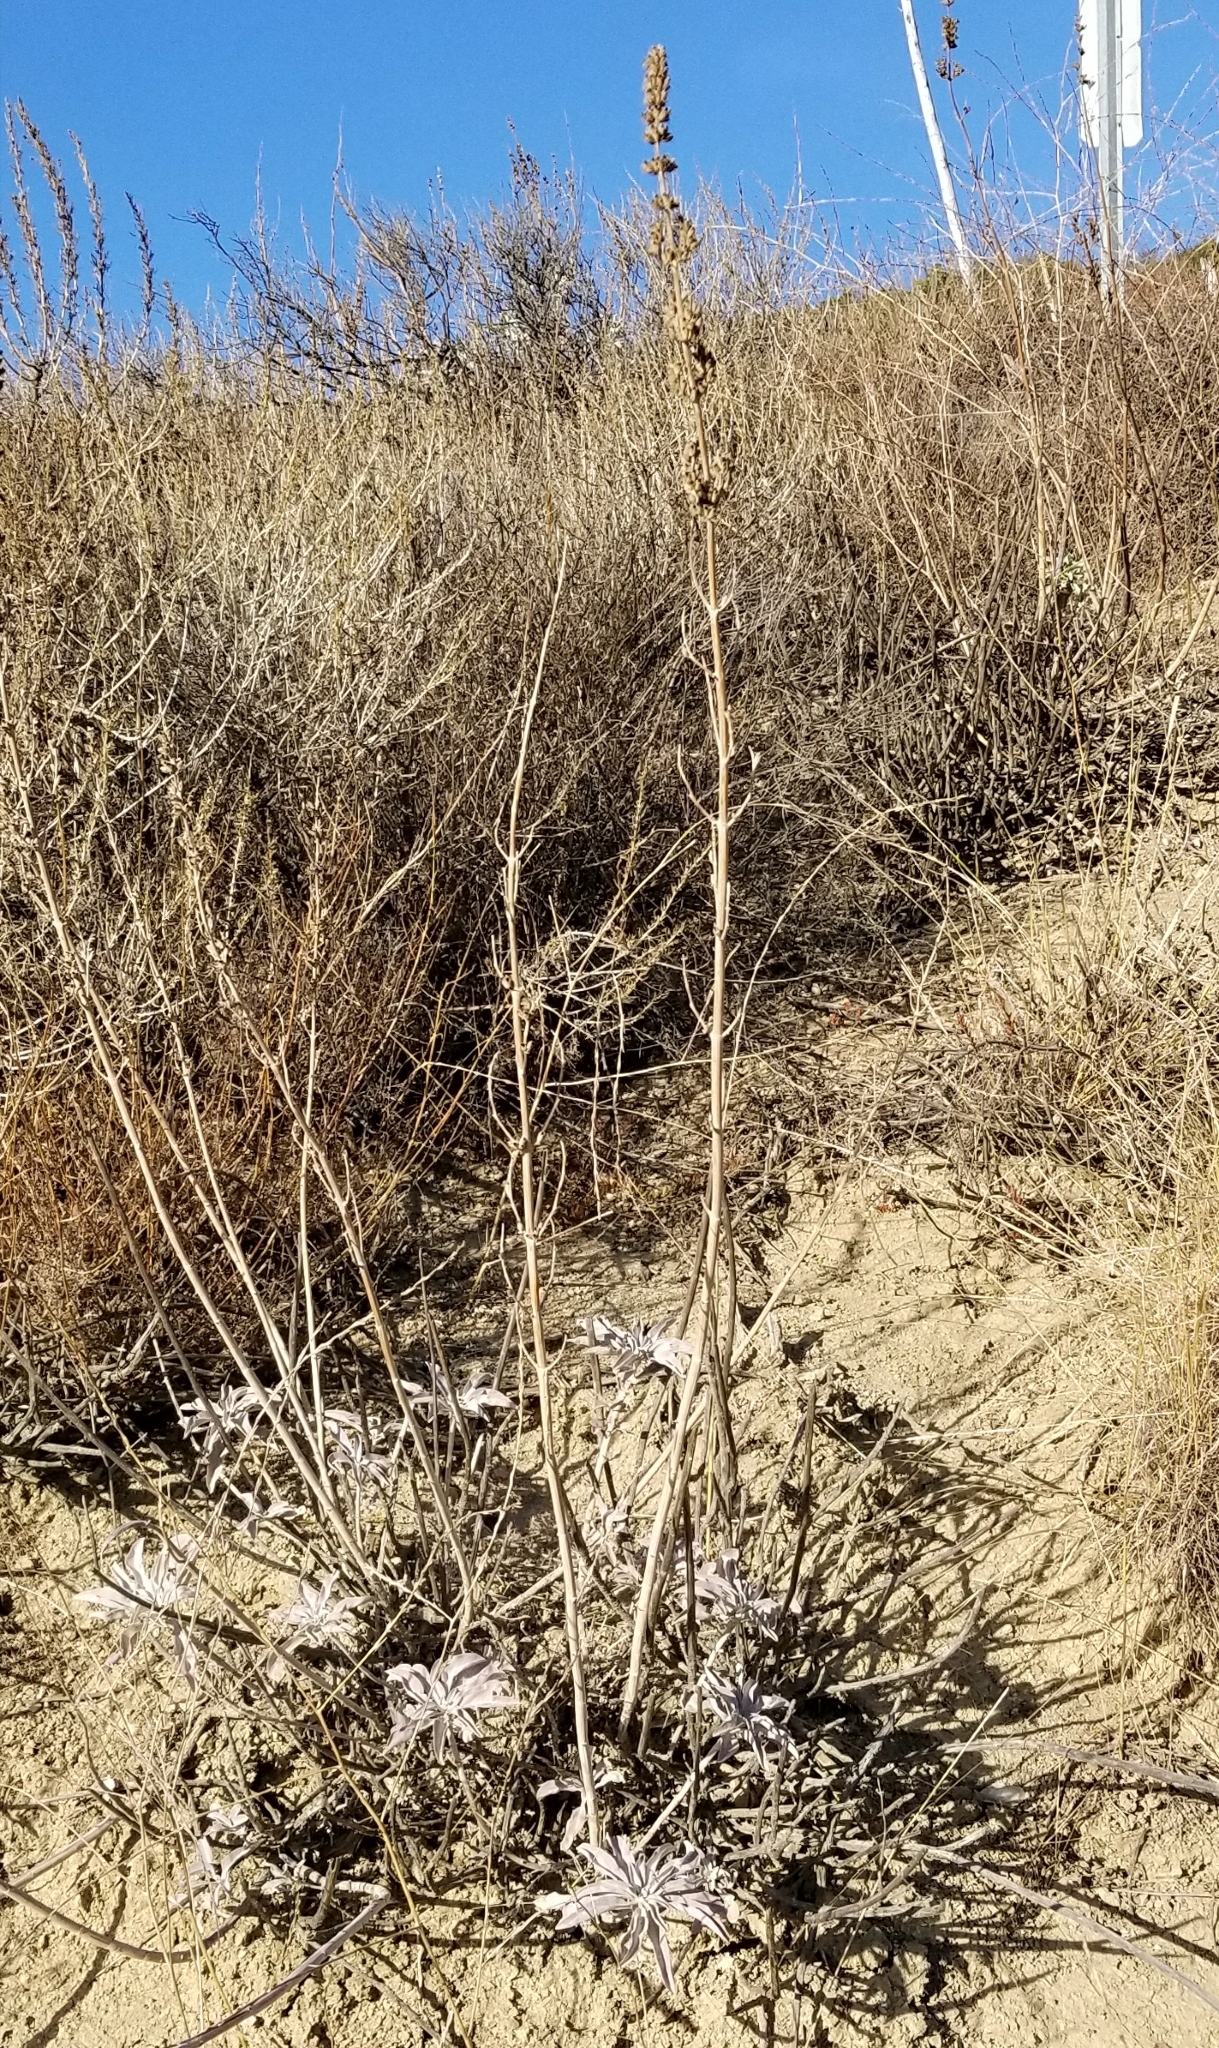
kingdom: Plantae
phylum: Tracheophyta
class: Magnoliopsida
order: Lamiales
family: Lamiaceae
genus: Salvia
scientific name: Salvia apiana
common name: White sage
